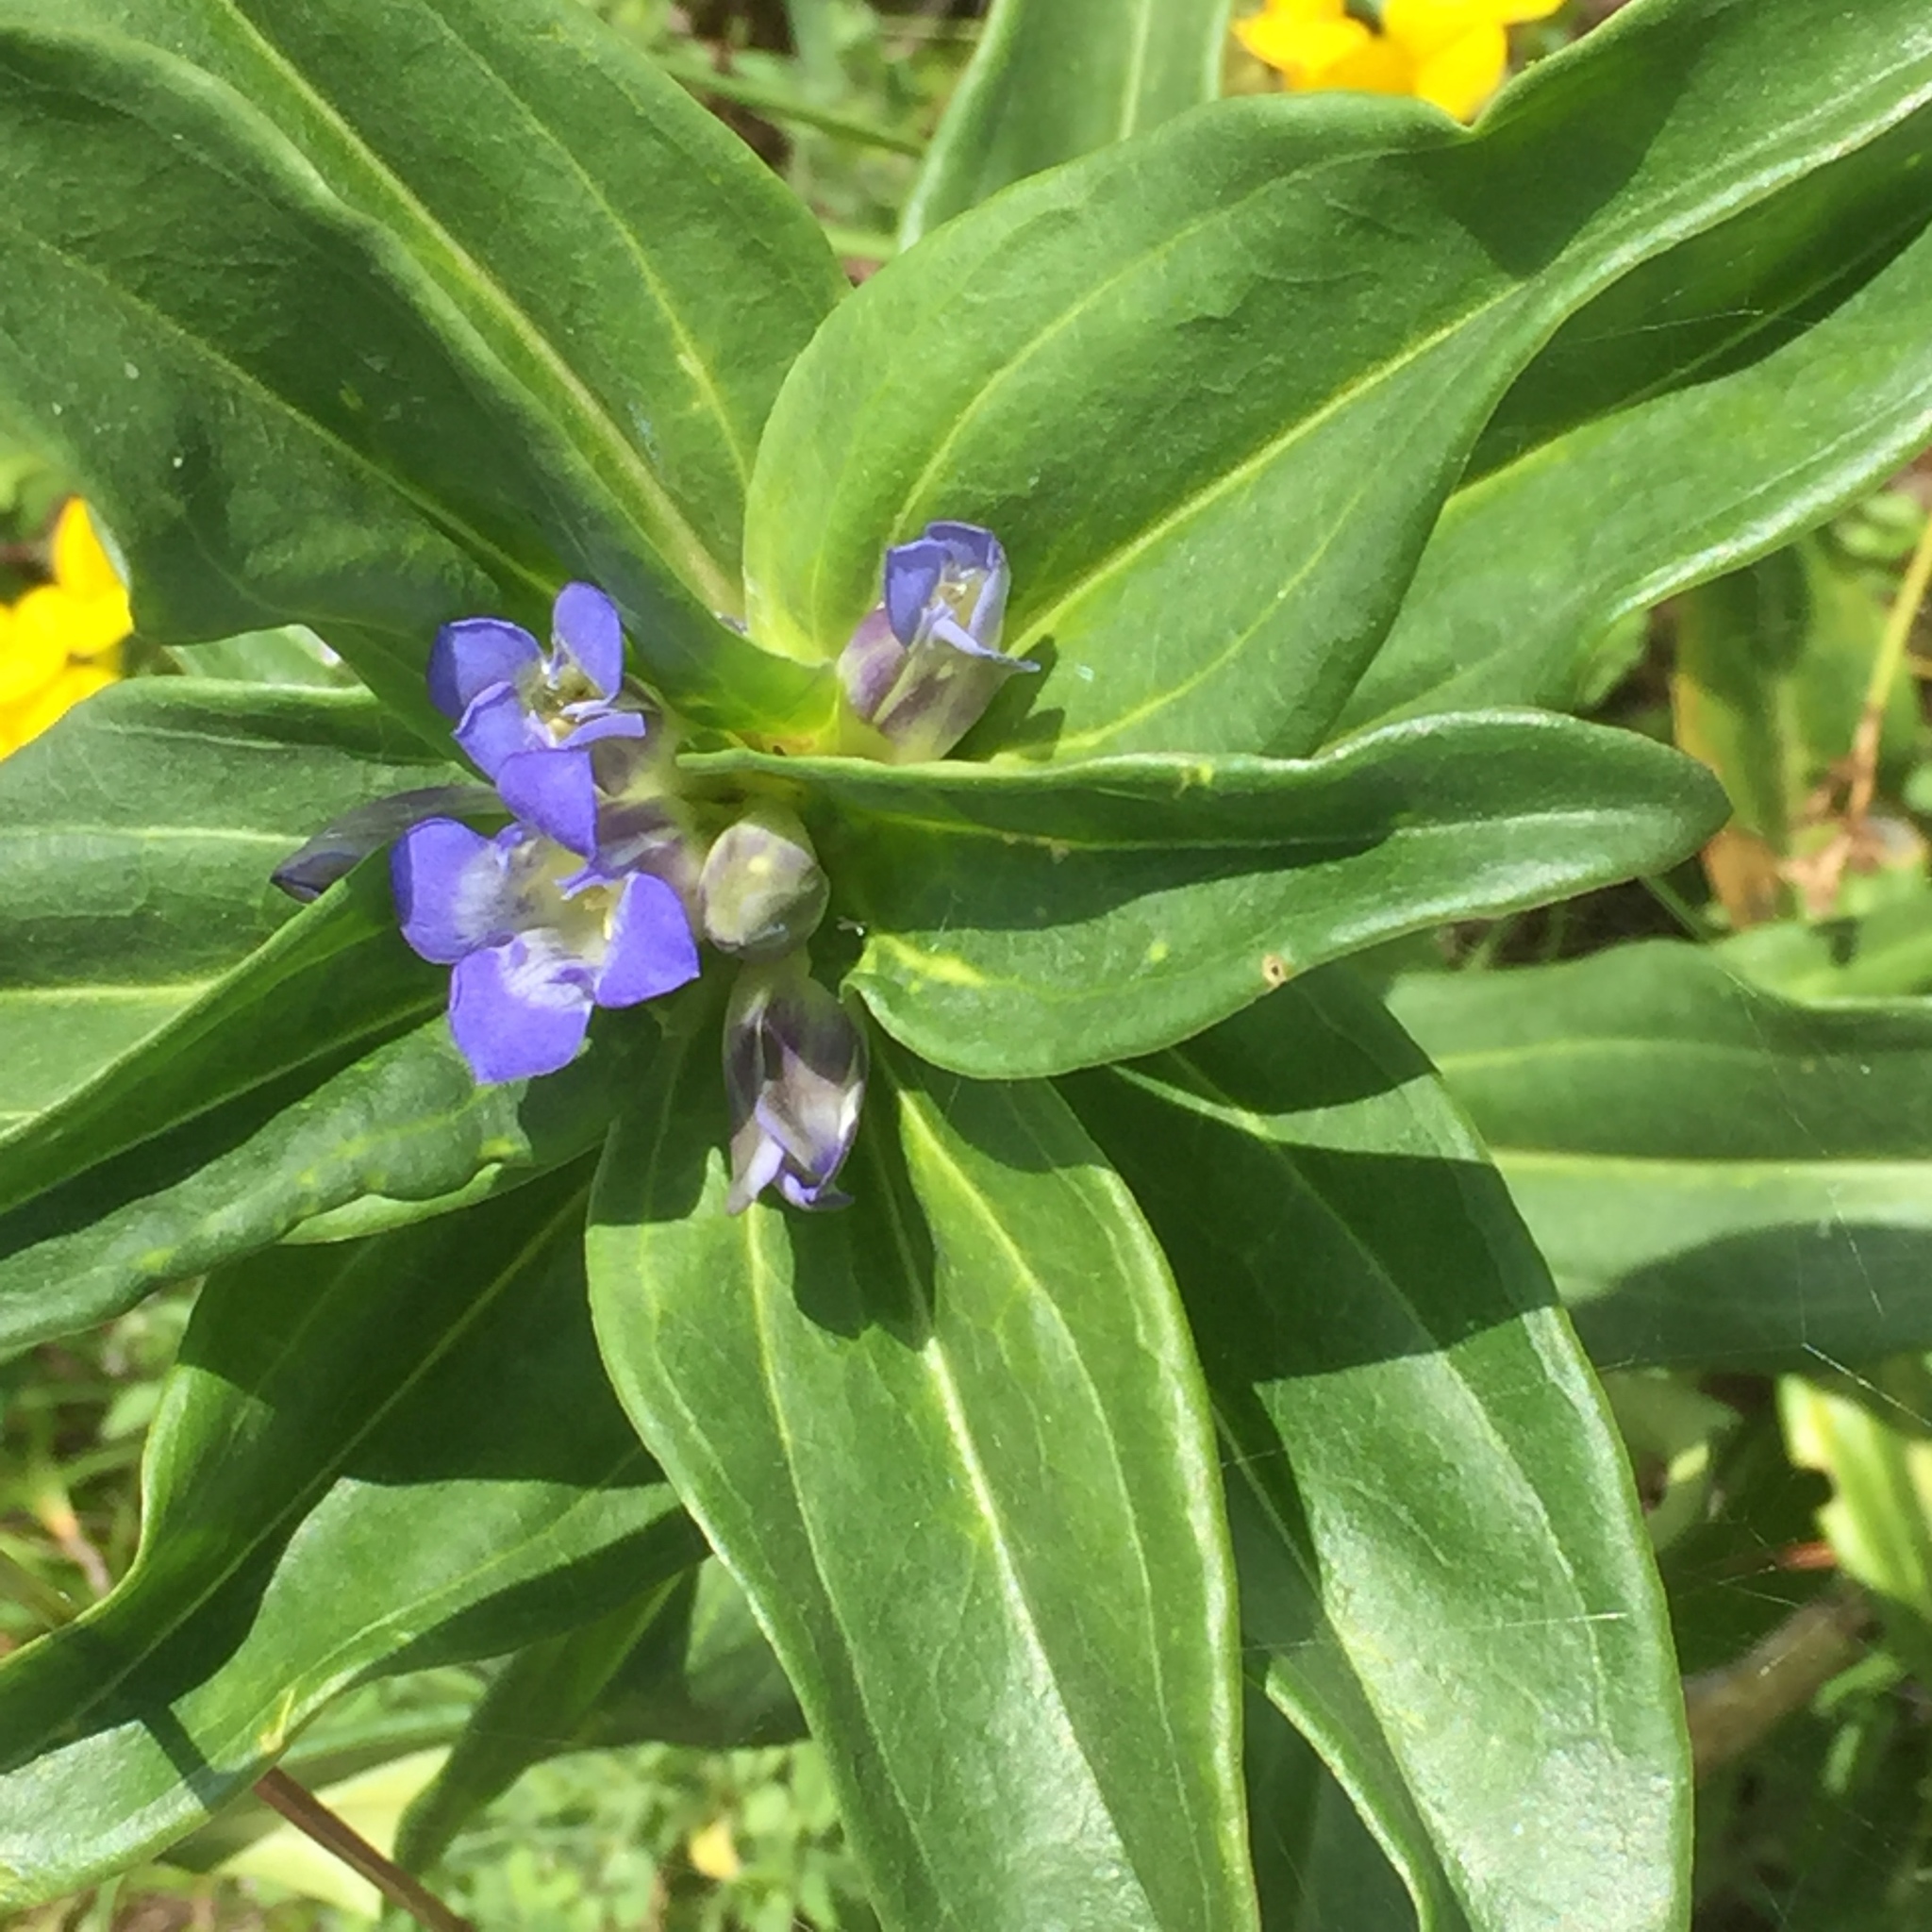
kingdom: Plantae
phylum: Tracheophyta
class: Magnoliopsida
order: Gentianales
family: Gentianaceae
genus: Gentiana
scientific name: Gentiana cruciata
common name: Cross gentian
